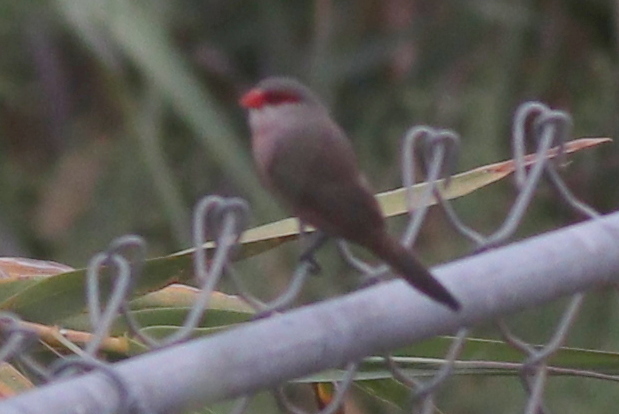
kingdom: Animalia
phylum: Chordata
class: Aves
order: Passeriformes
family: Estrildidae
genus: Estrilda
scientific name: Estrilda astrild
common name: Common waxbill
